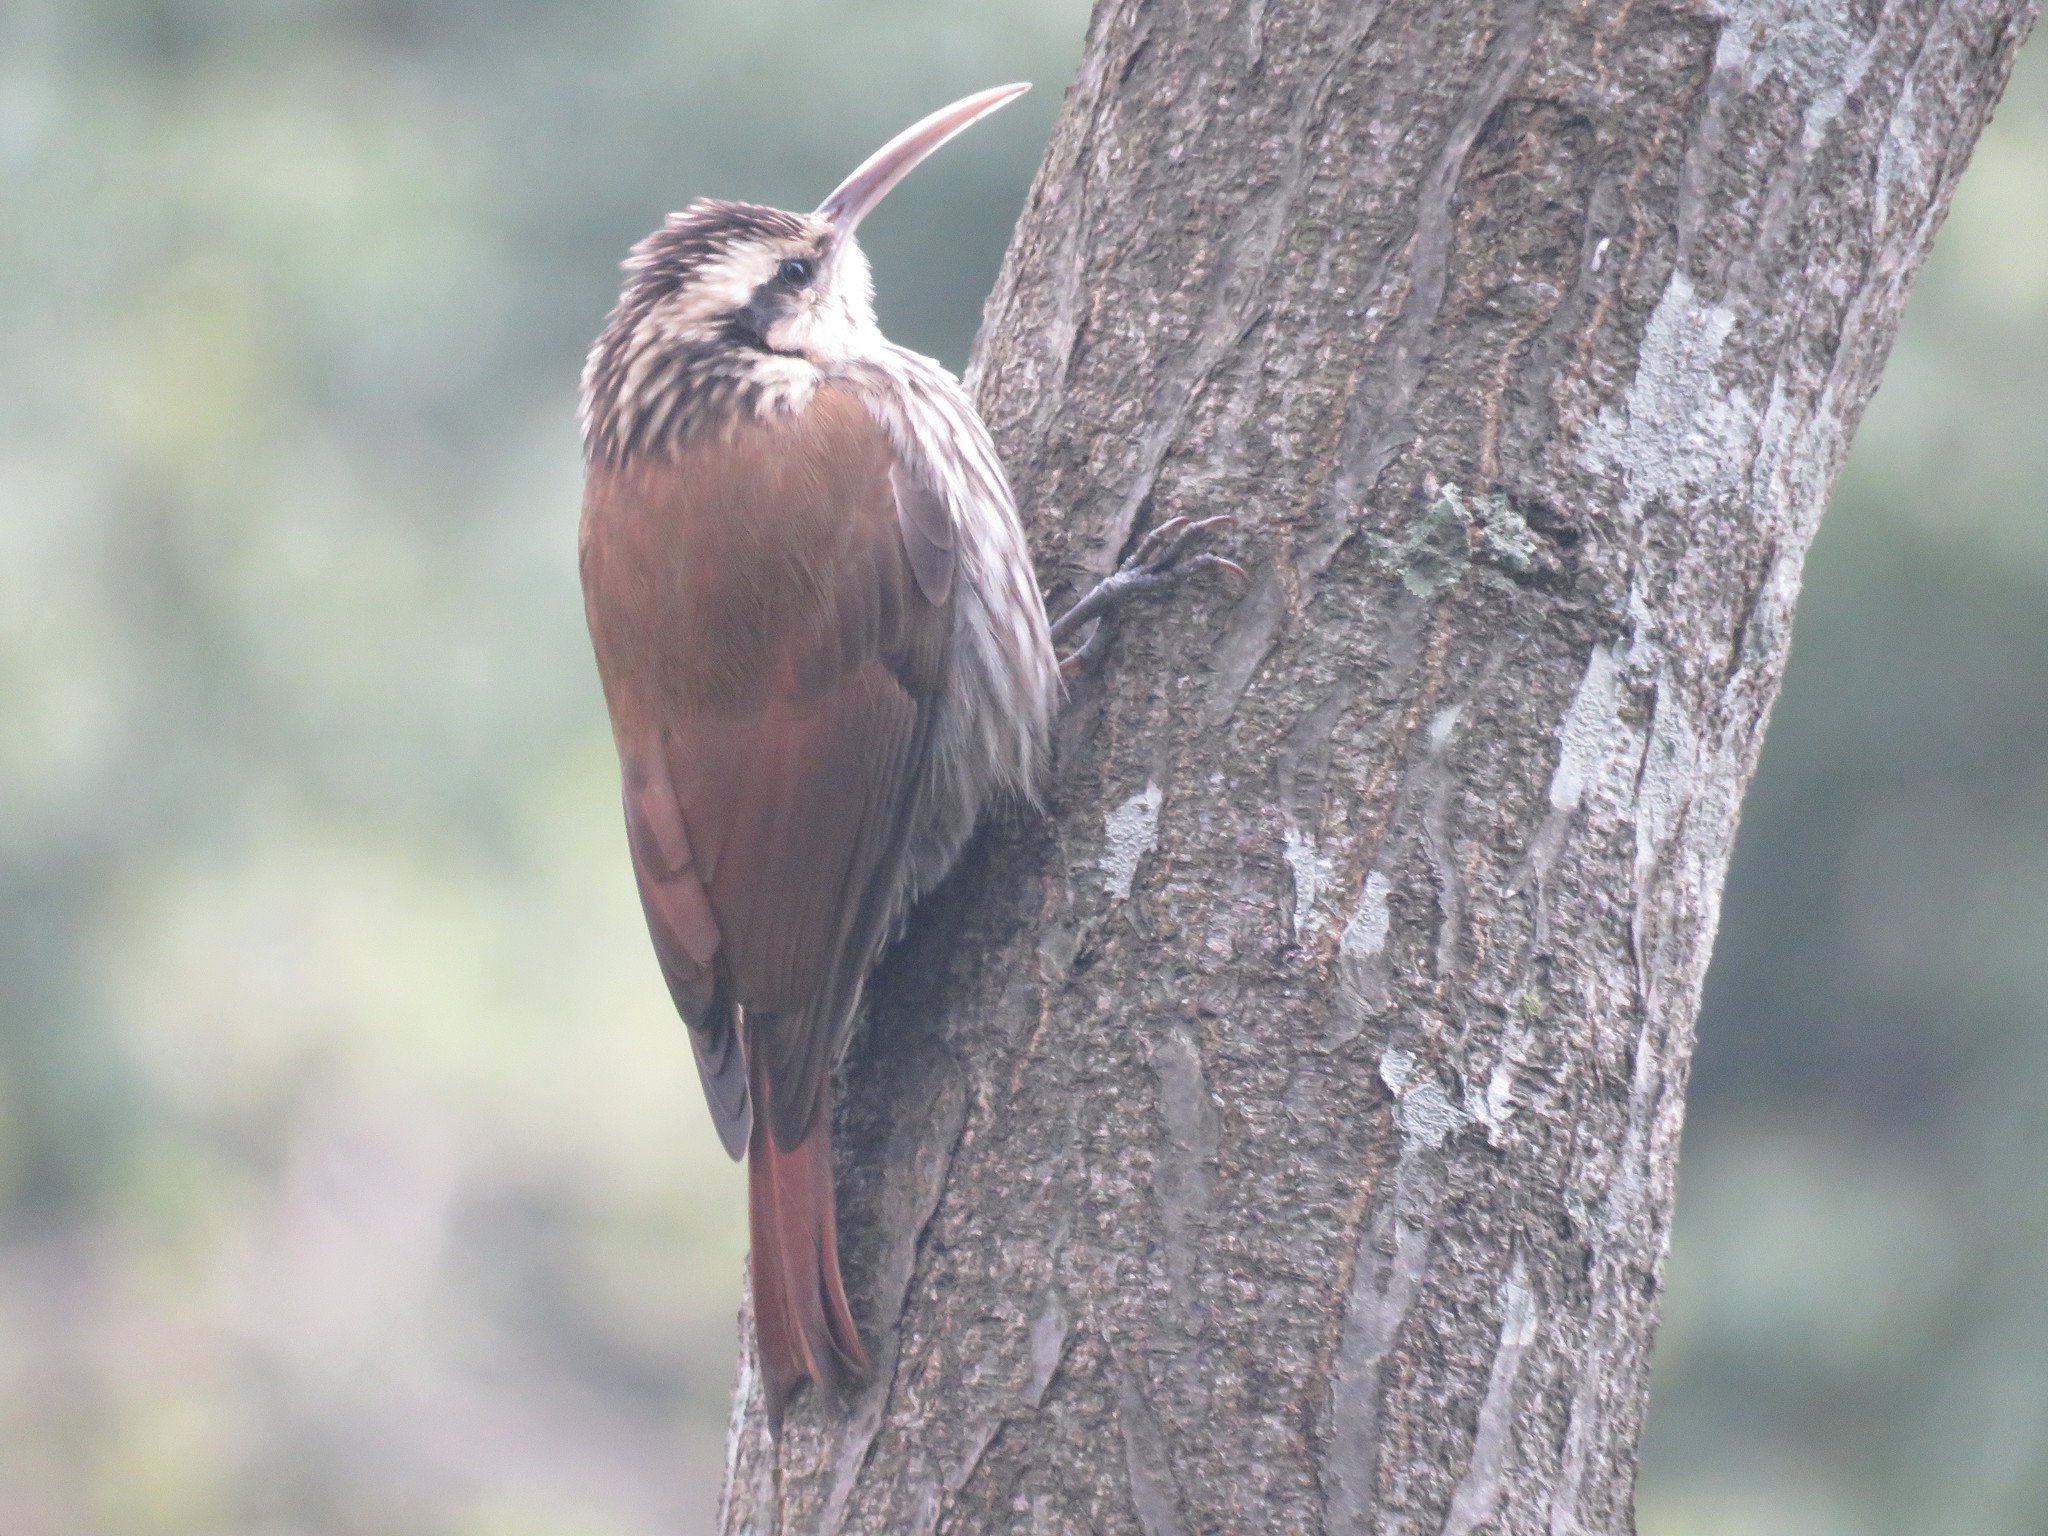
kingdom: Animalia
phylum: Chordata
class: Aves
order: Passeriformes
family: Furnariidae
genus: Lepidocolaptes
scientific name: Lepidocolaptes angustirostris
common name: Narrow-billed woodcreeper
